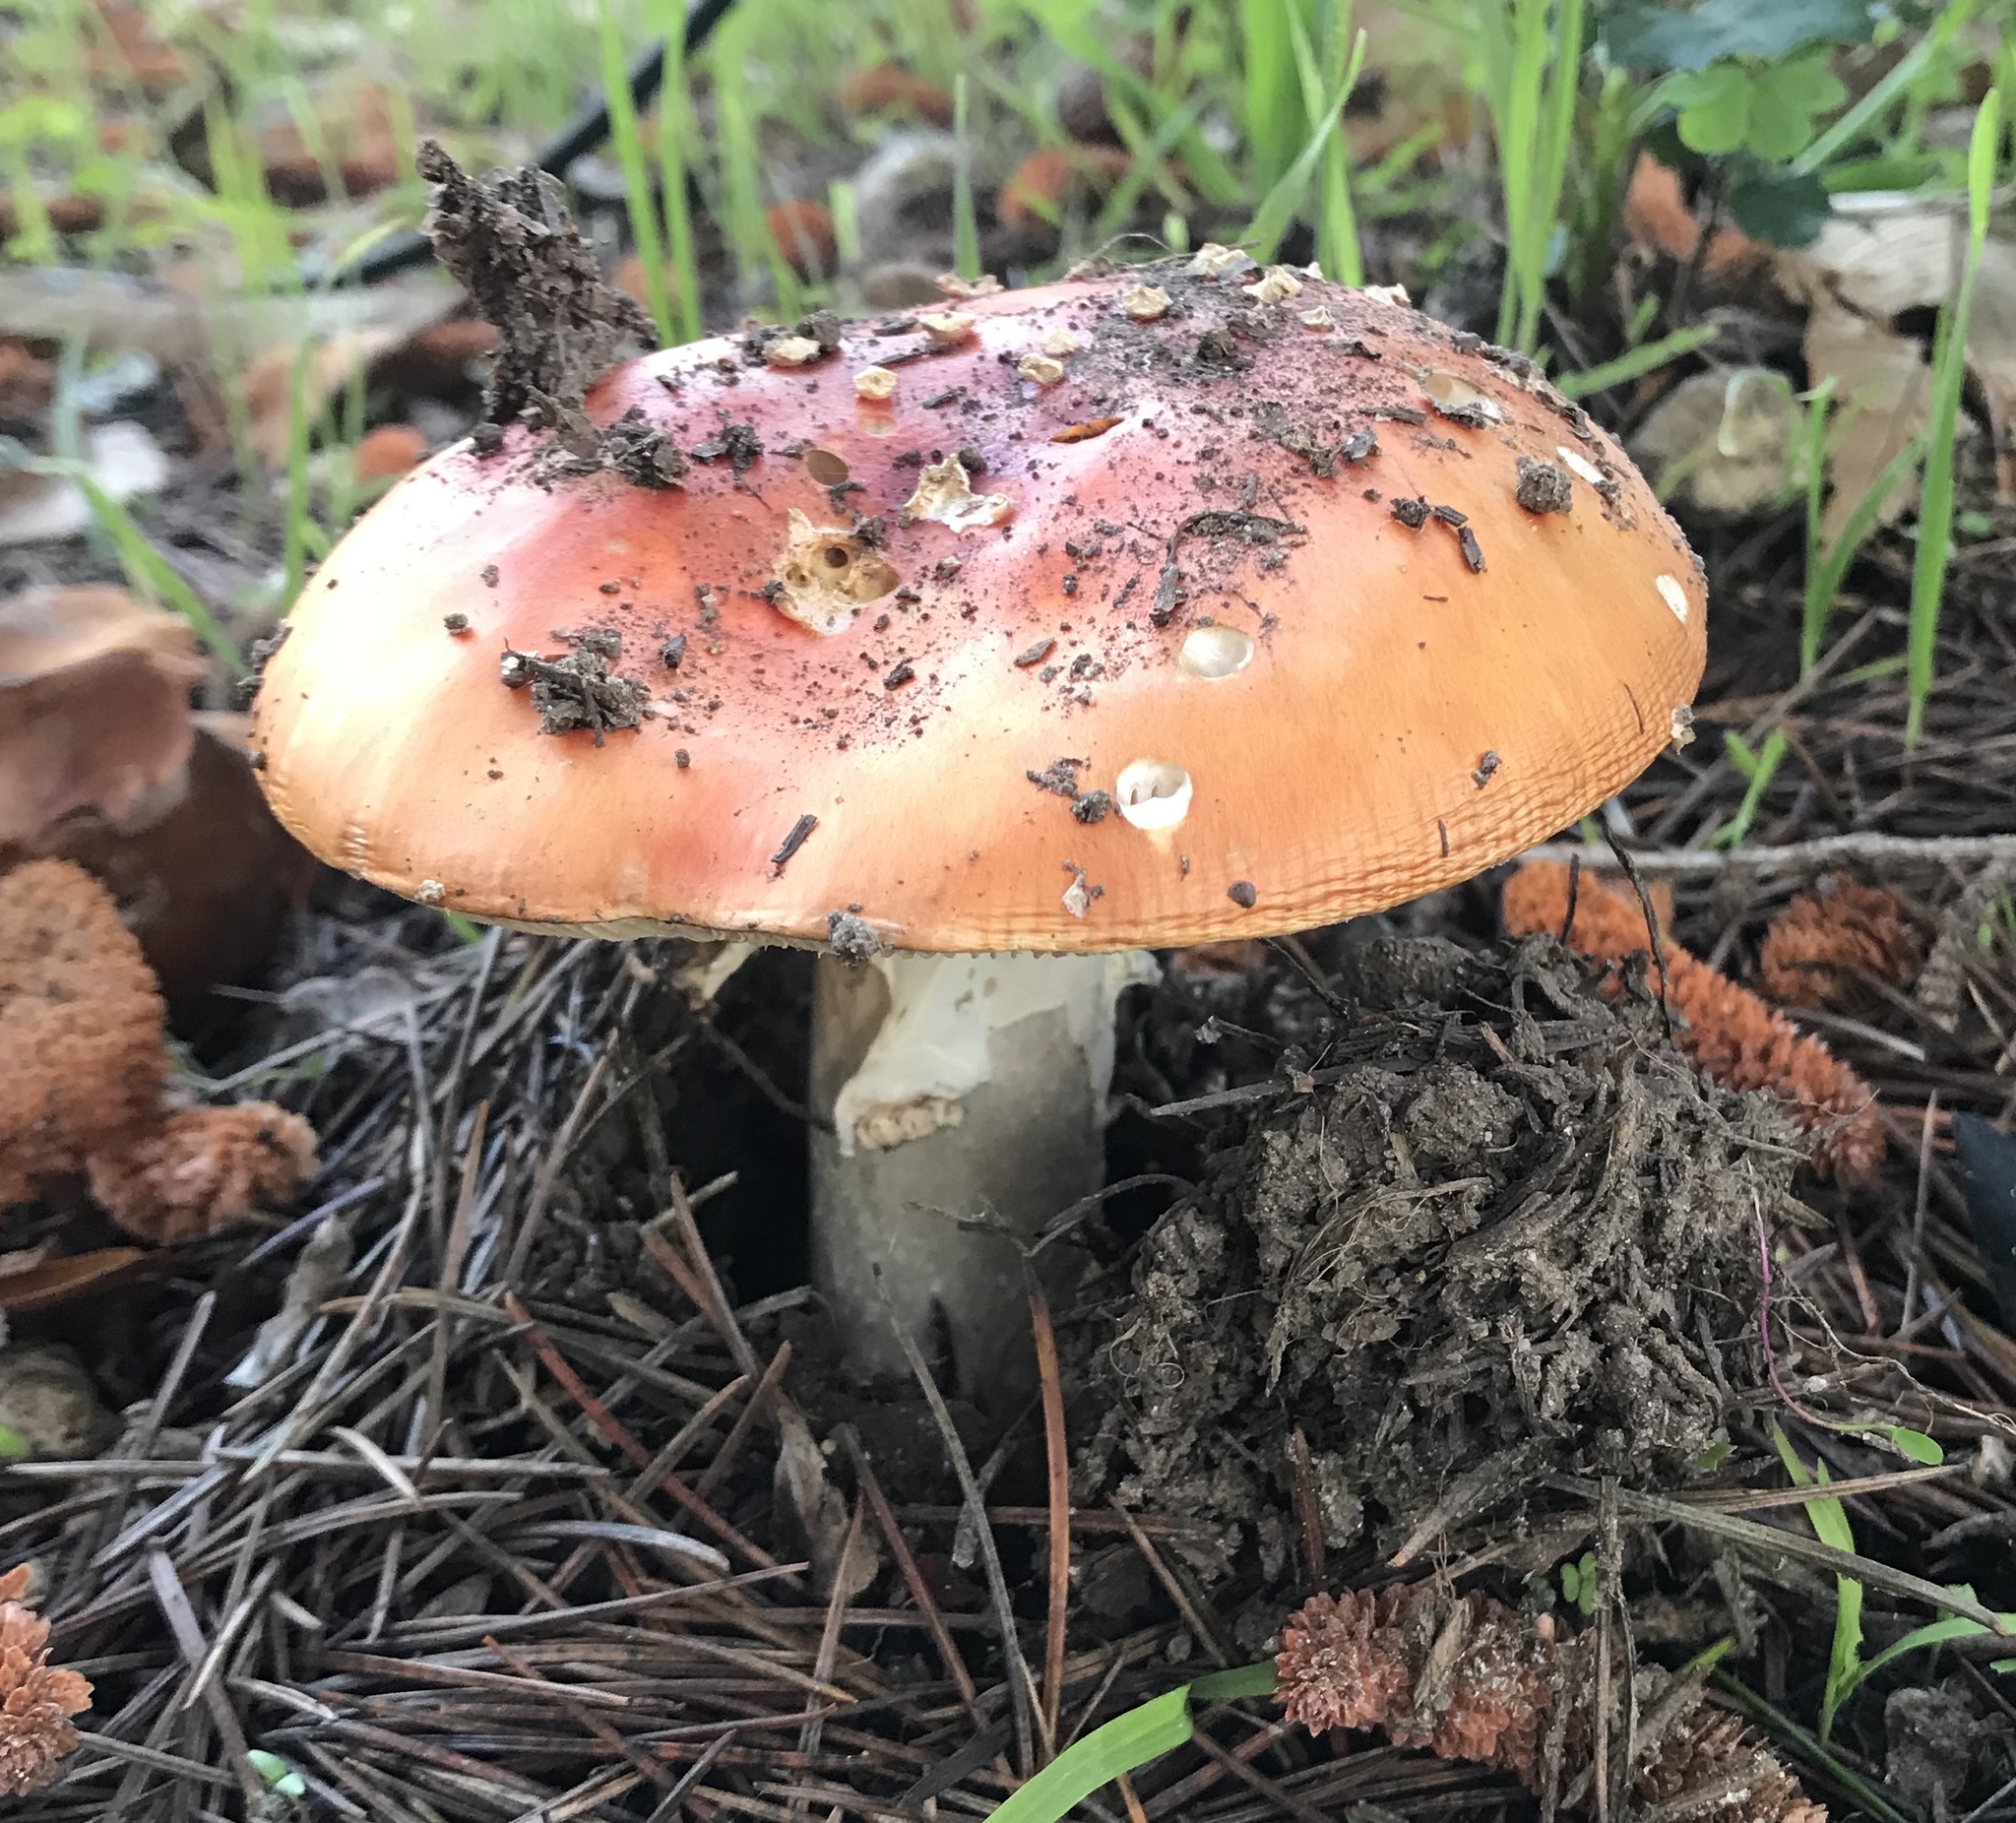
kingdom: Fungi
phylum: Basidiomycota
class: Agaricomycetes
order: Agaricales
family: Amanitaceae
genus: Amanita
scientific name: Amanita muscaria
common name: Fly agaric
